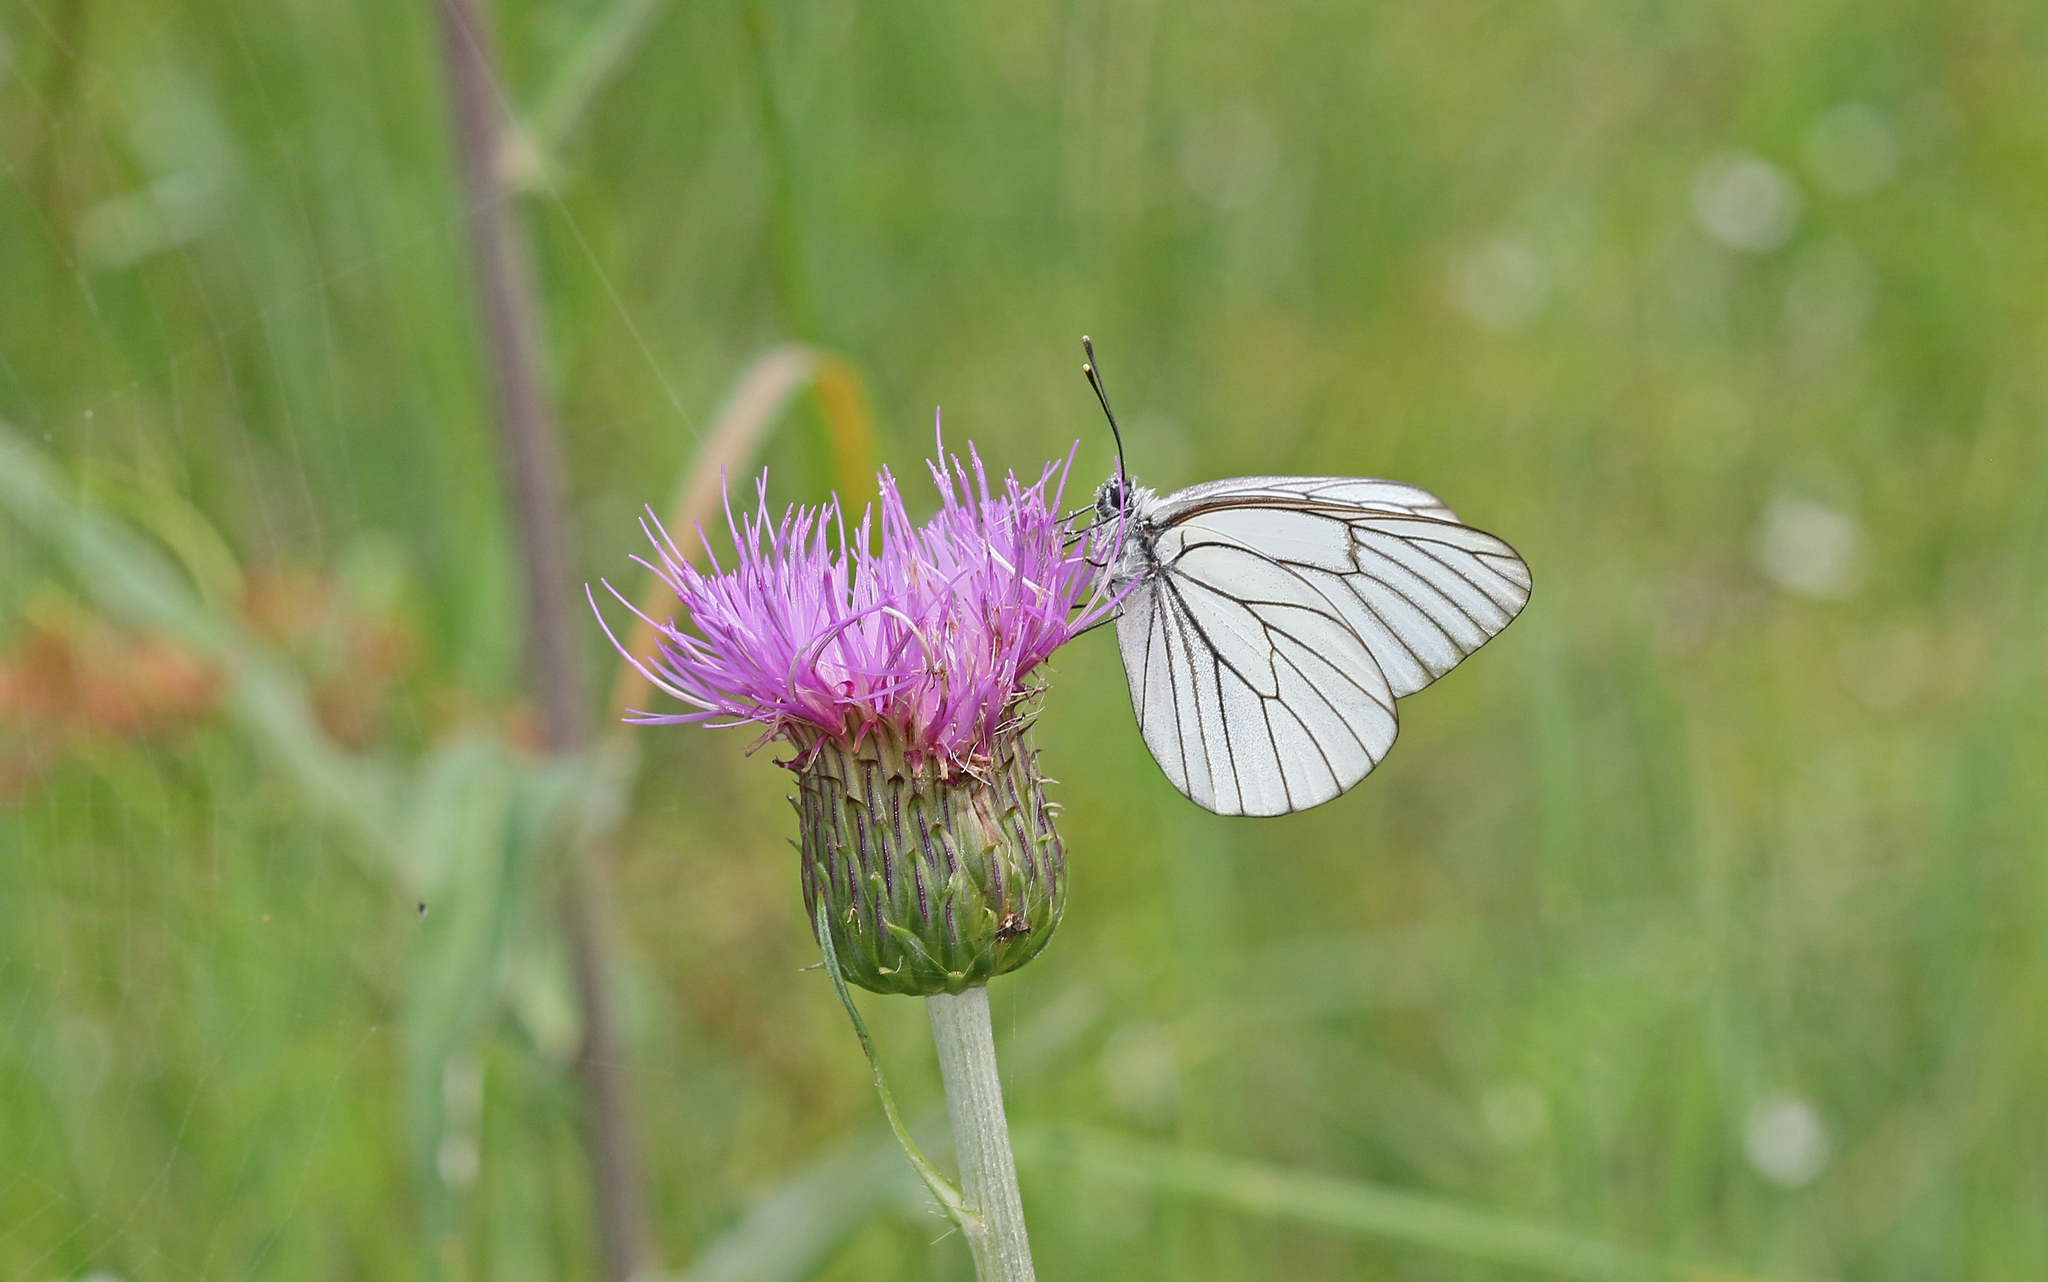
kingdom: Animalia
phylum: Arthropoda
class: Insecta
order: Lepidoptera
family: Pieridae
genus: Aporia
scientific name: Aporia crataegi
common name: Black-veined white
